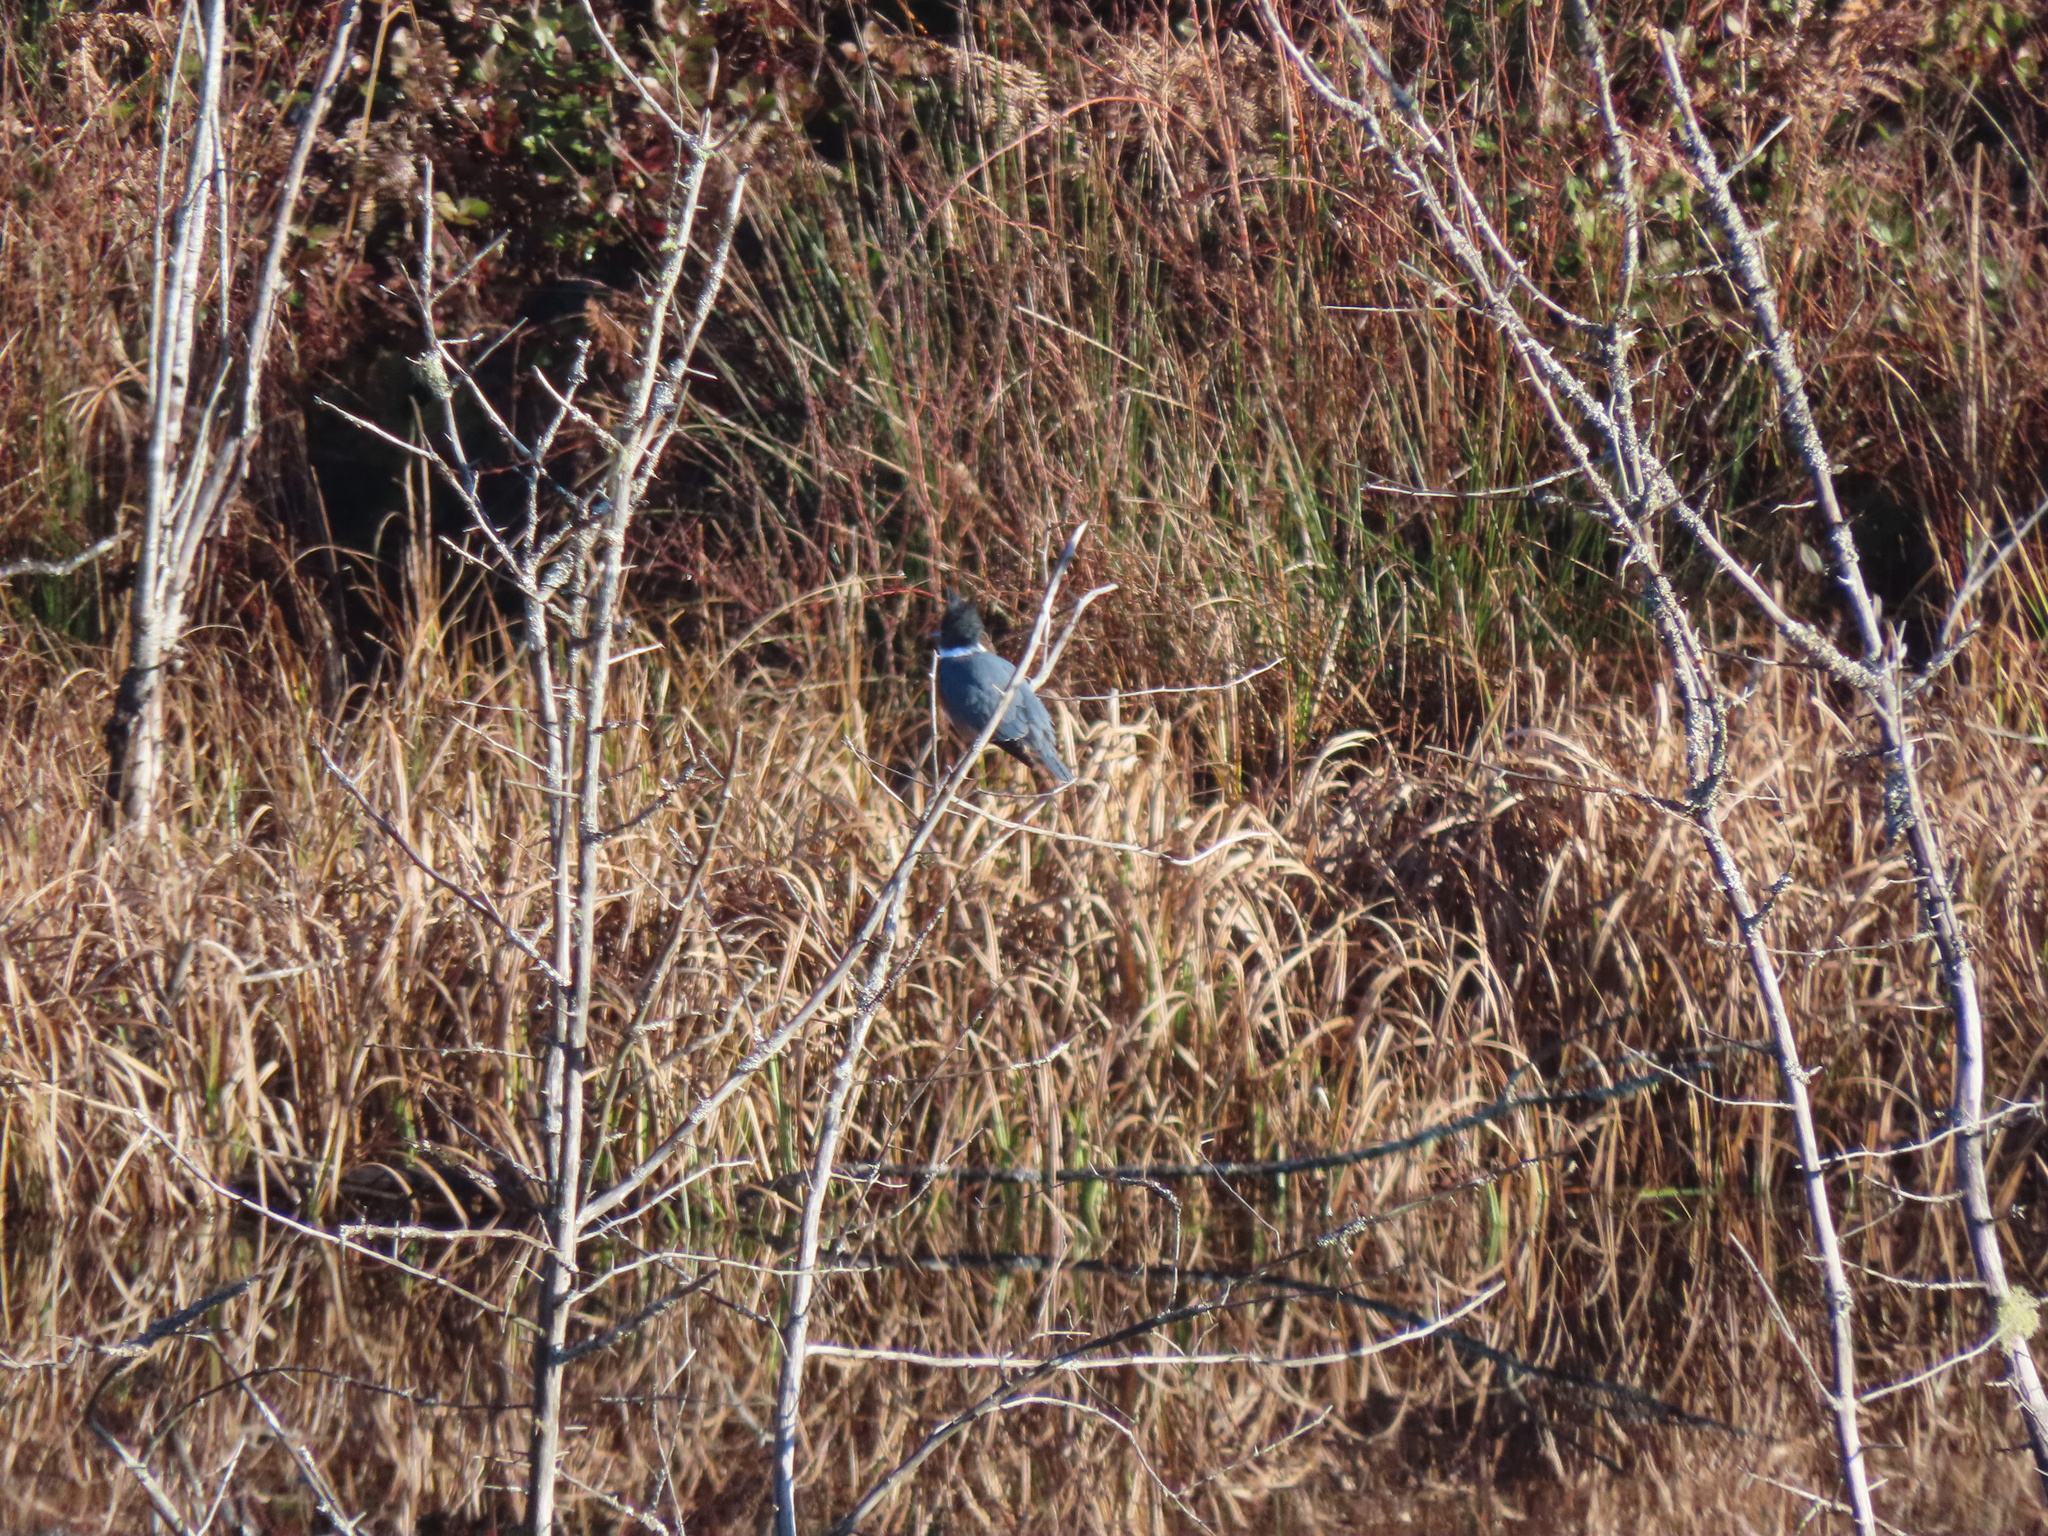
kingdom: Animalia
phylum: Chordata
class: Aves
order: Coraciiformes
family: Alcedinidae
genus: Megaceryle
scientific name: Megaceryle alcyon
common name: Belted kingfisher
